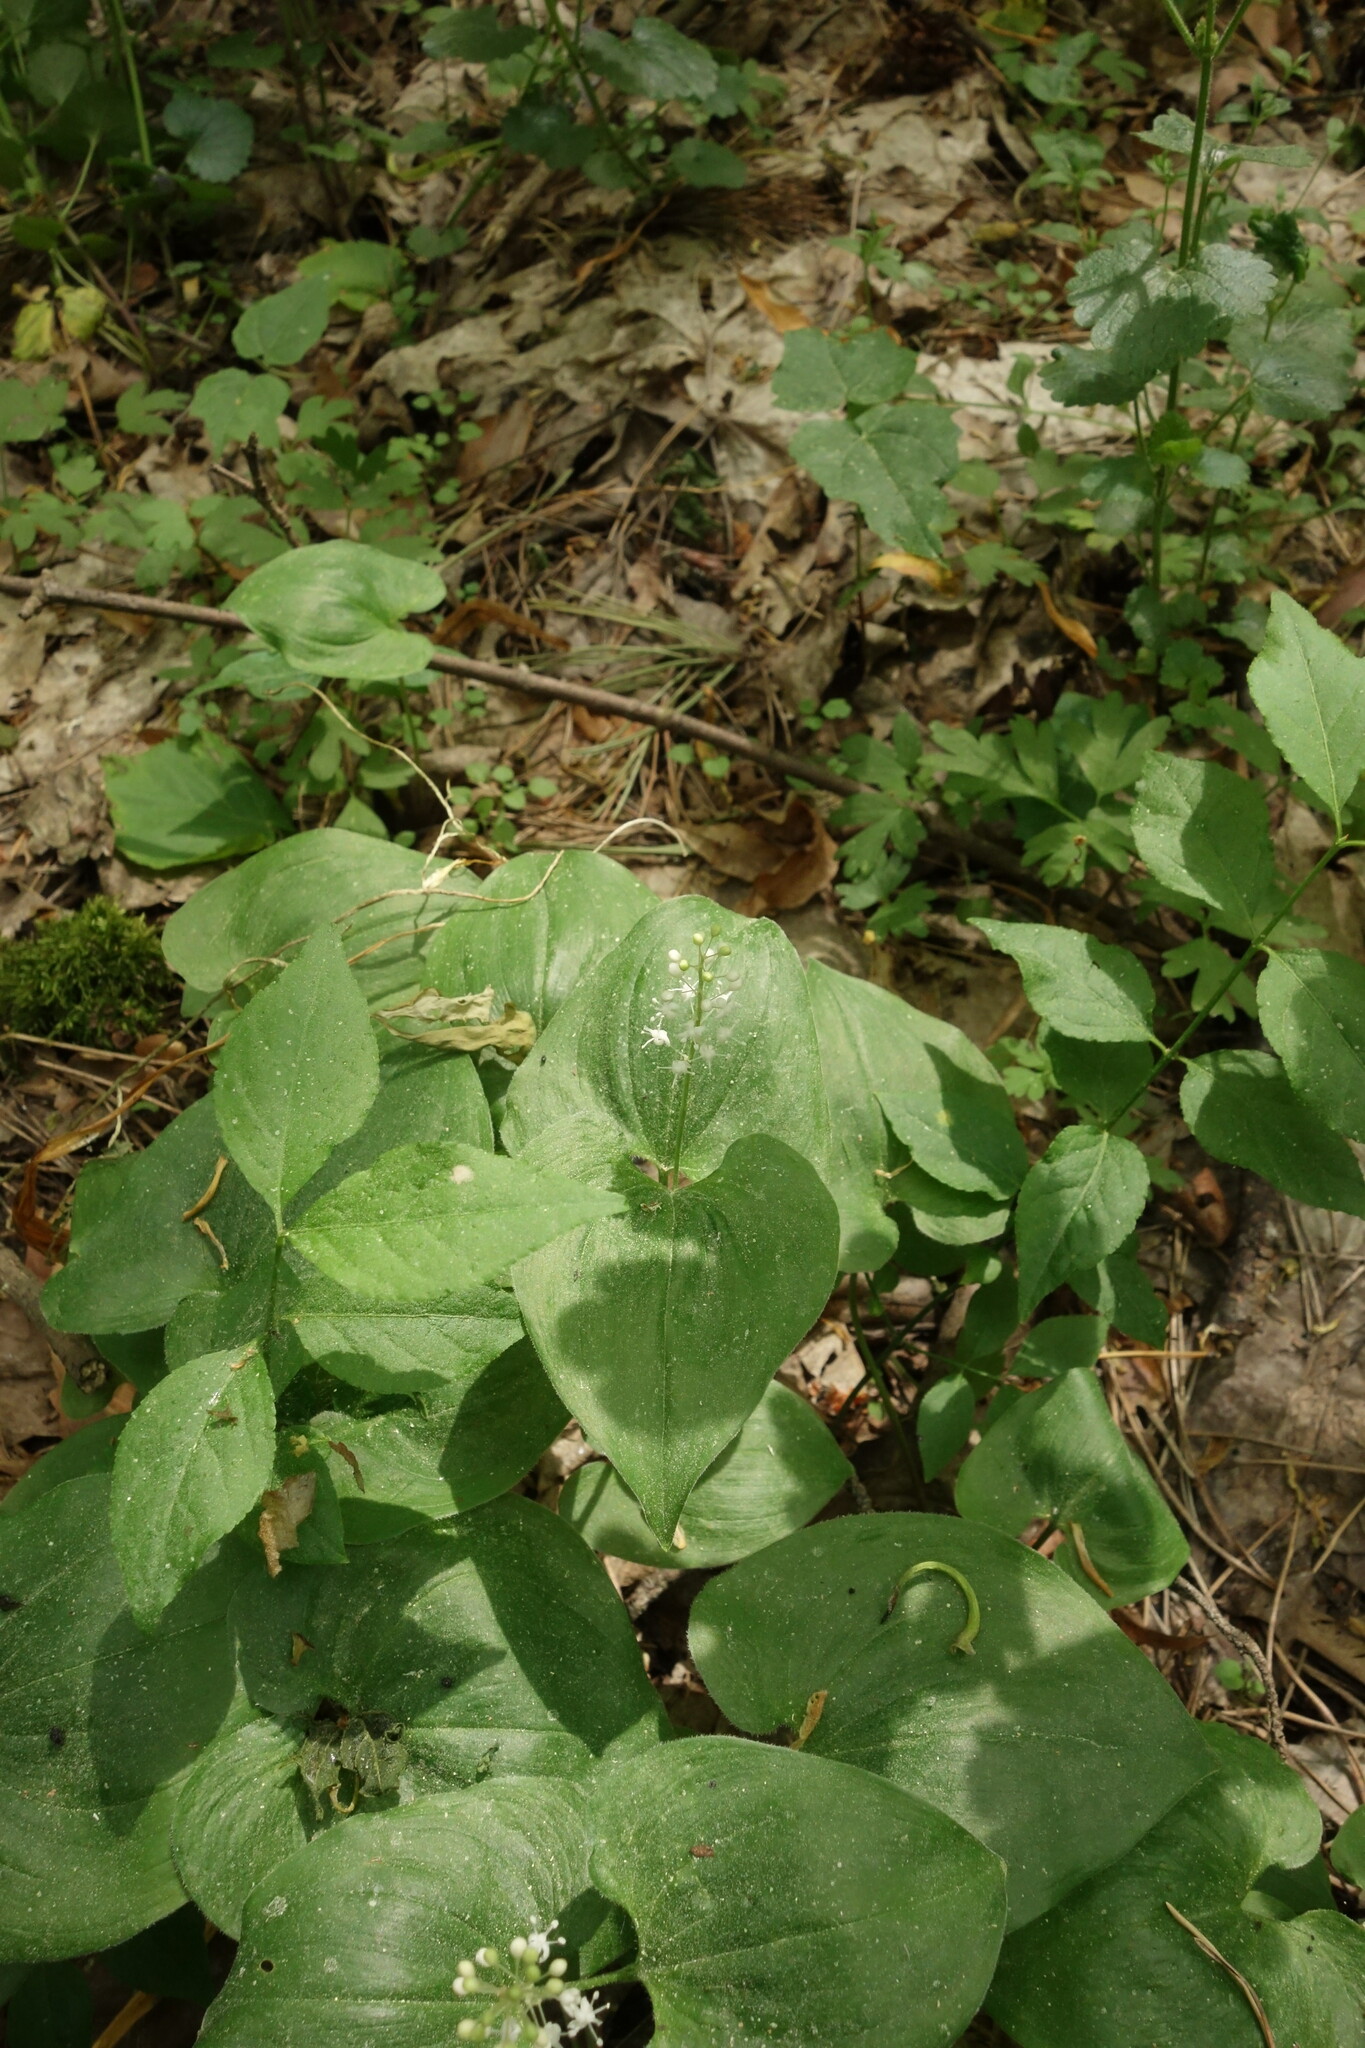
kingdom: Plantae
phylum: Tracheophyta
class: Liliopsida
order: Asparagales
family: Asparagaceae
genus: Maianthemum
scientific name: Maianthemum bifolium
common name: May lily
